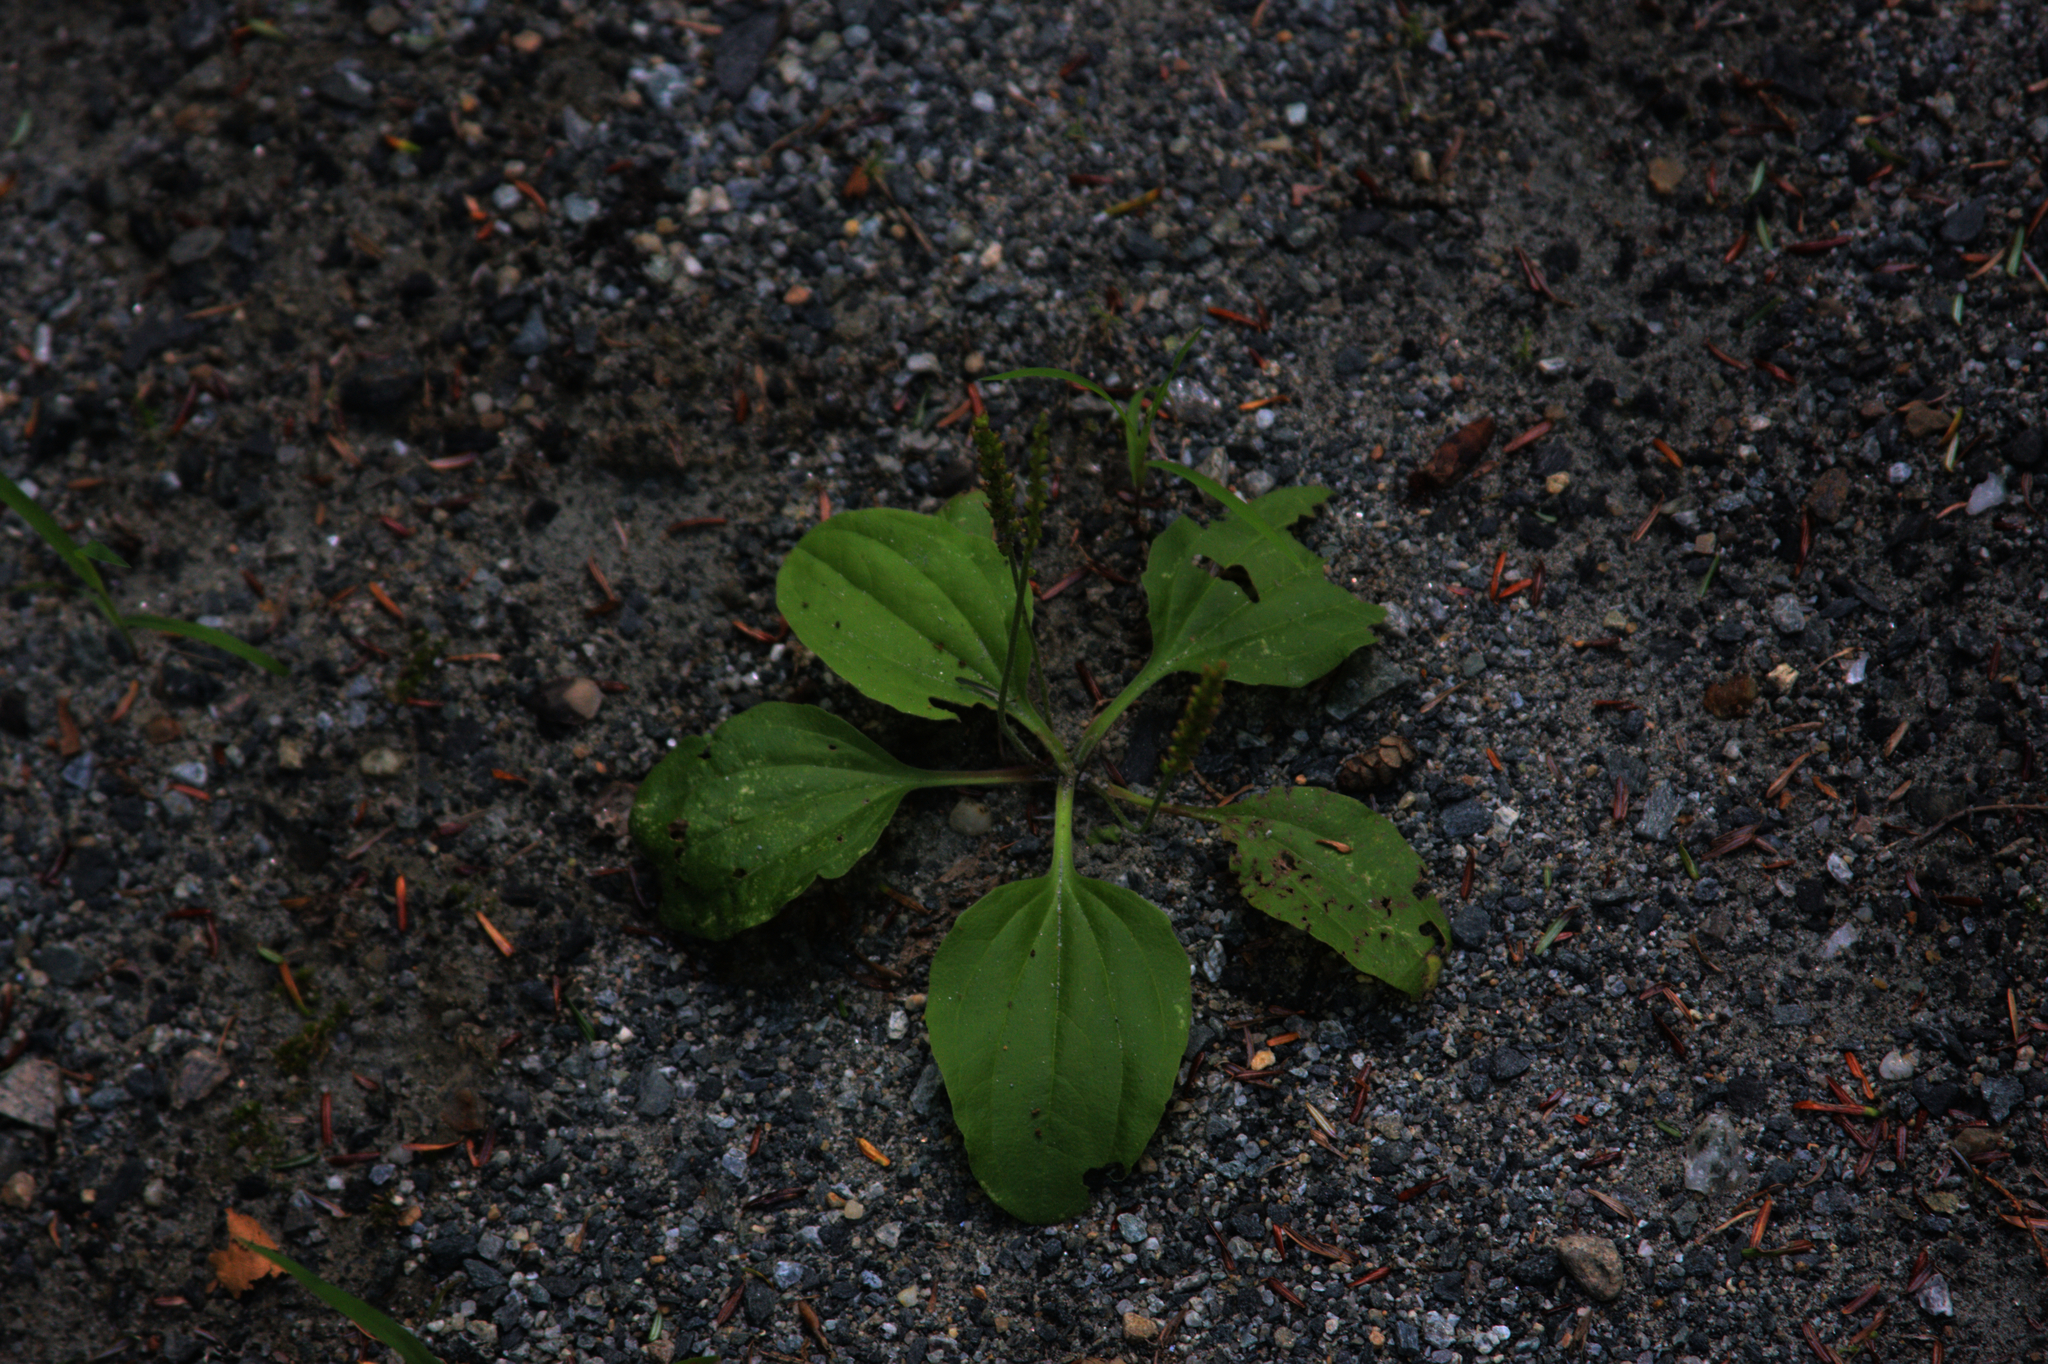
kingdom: Plantae
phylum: Tracheophyta
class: Magnoliopsida
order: Lamiales
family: Plantaginaceae
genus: Plantago
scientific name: Plantago major
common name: Common plantain
